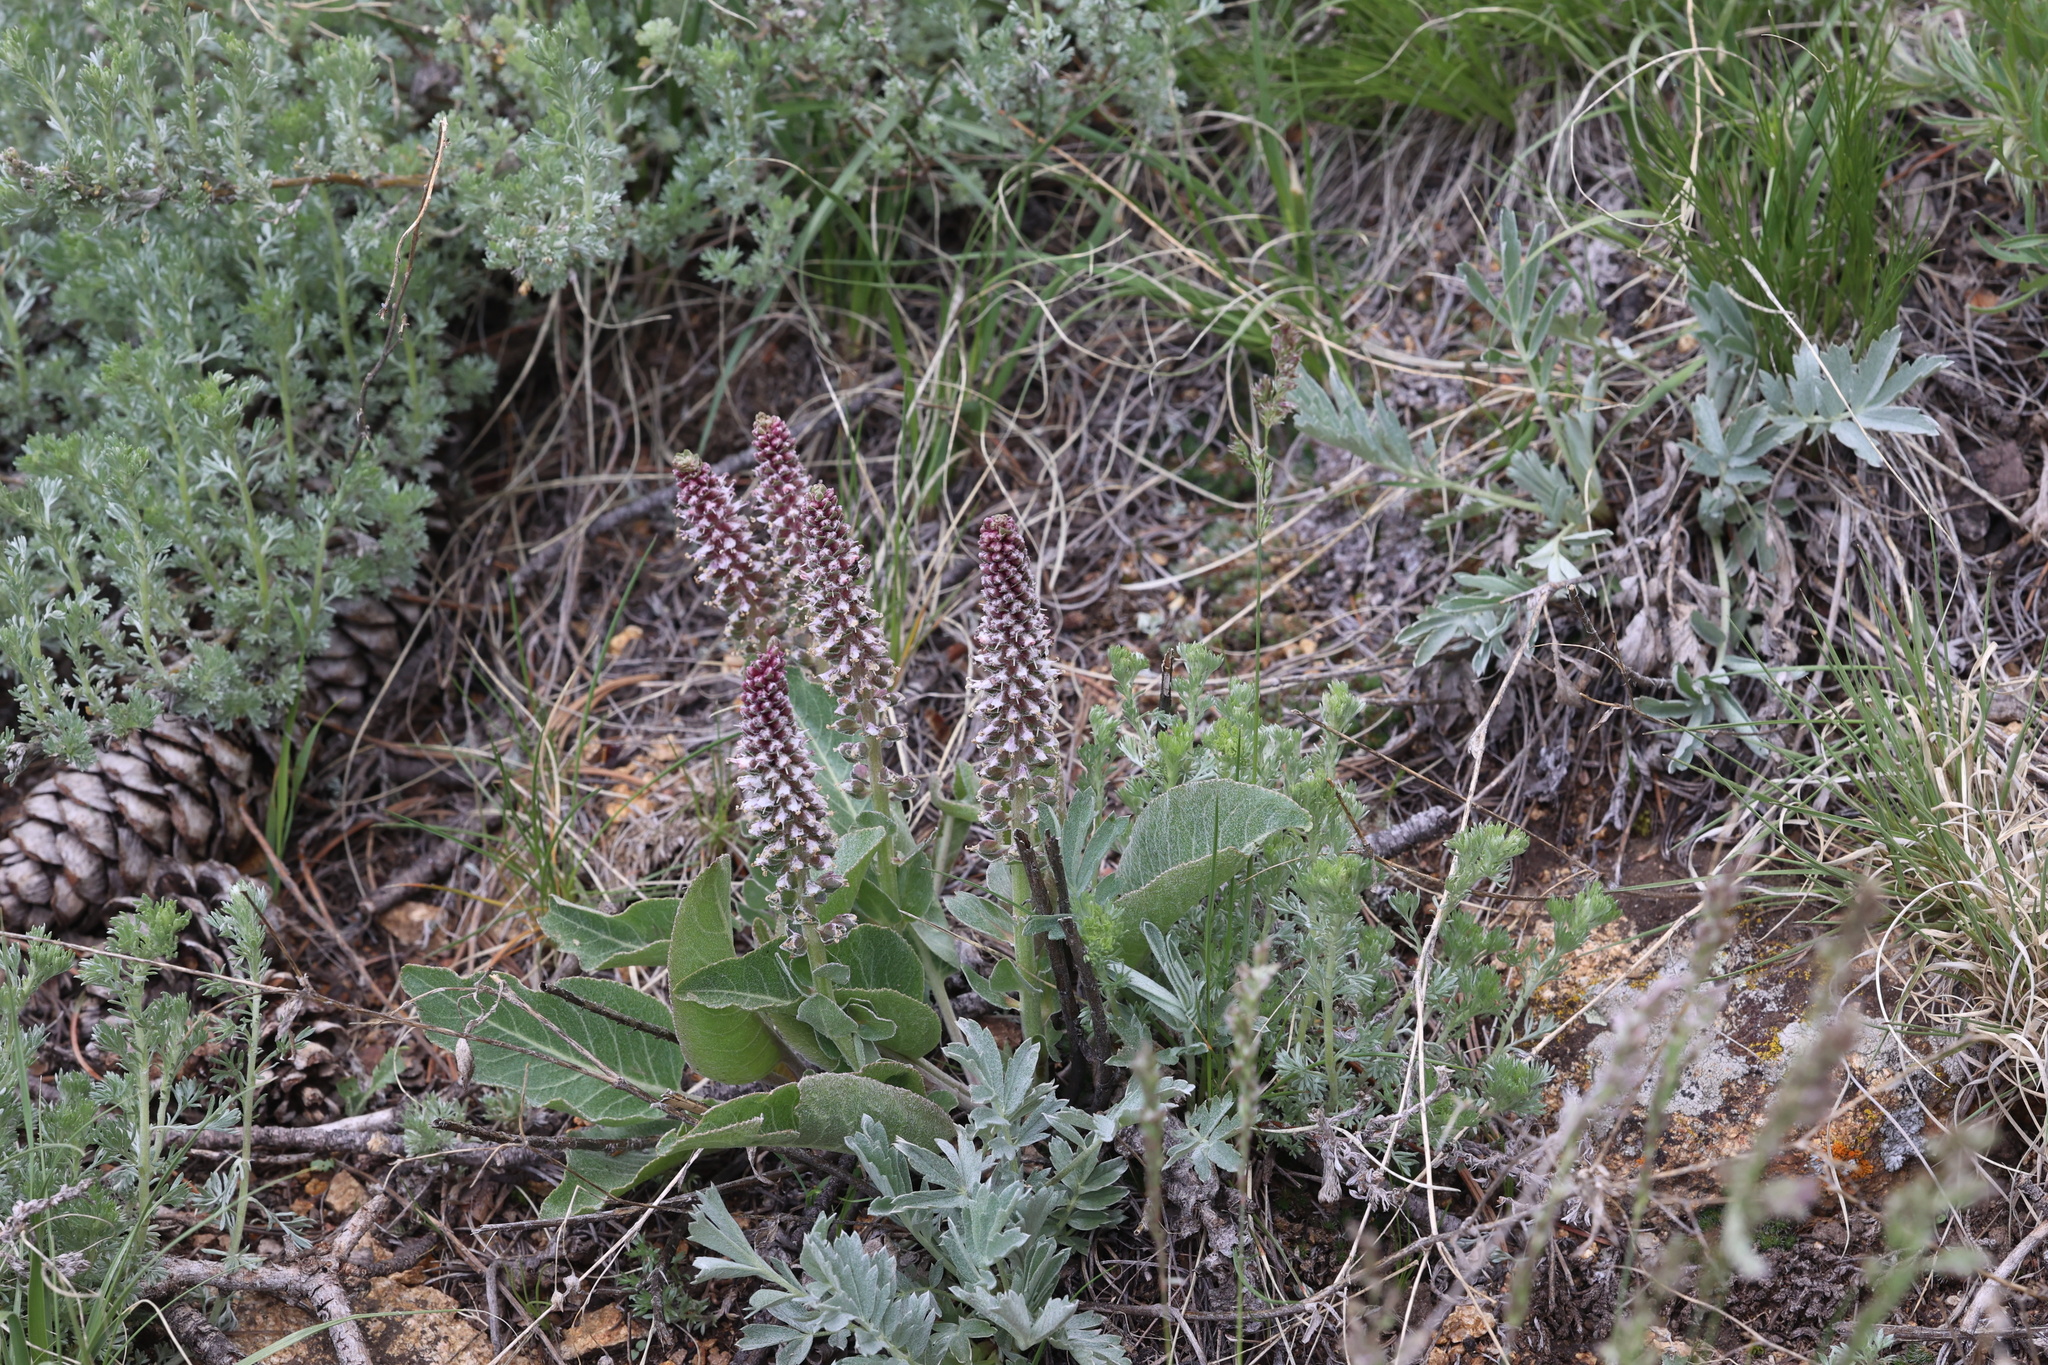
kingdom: Plantae
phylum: Tracheophyta
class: Magnoliopsida
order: Lamiales
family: Plantaginaceae
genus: Veronica
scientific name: Veronica plantaginea
